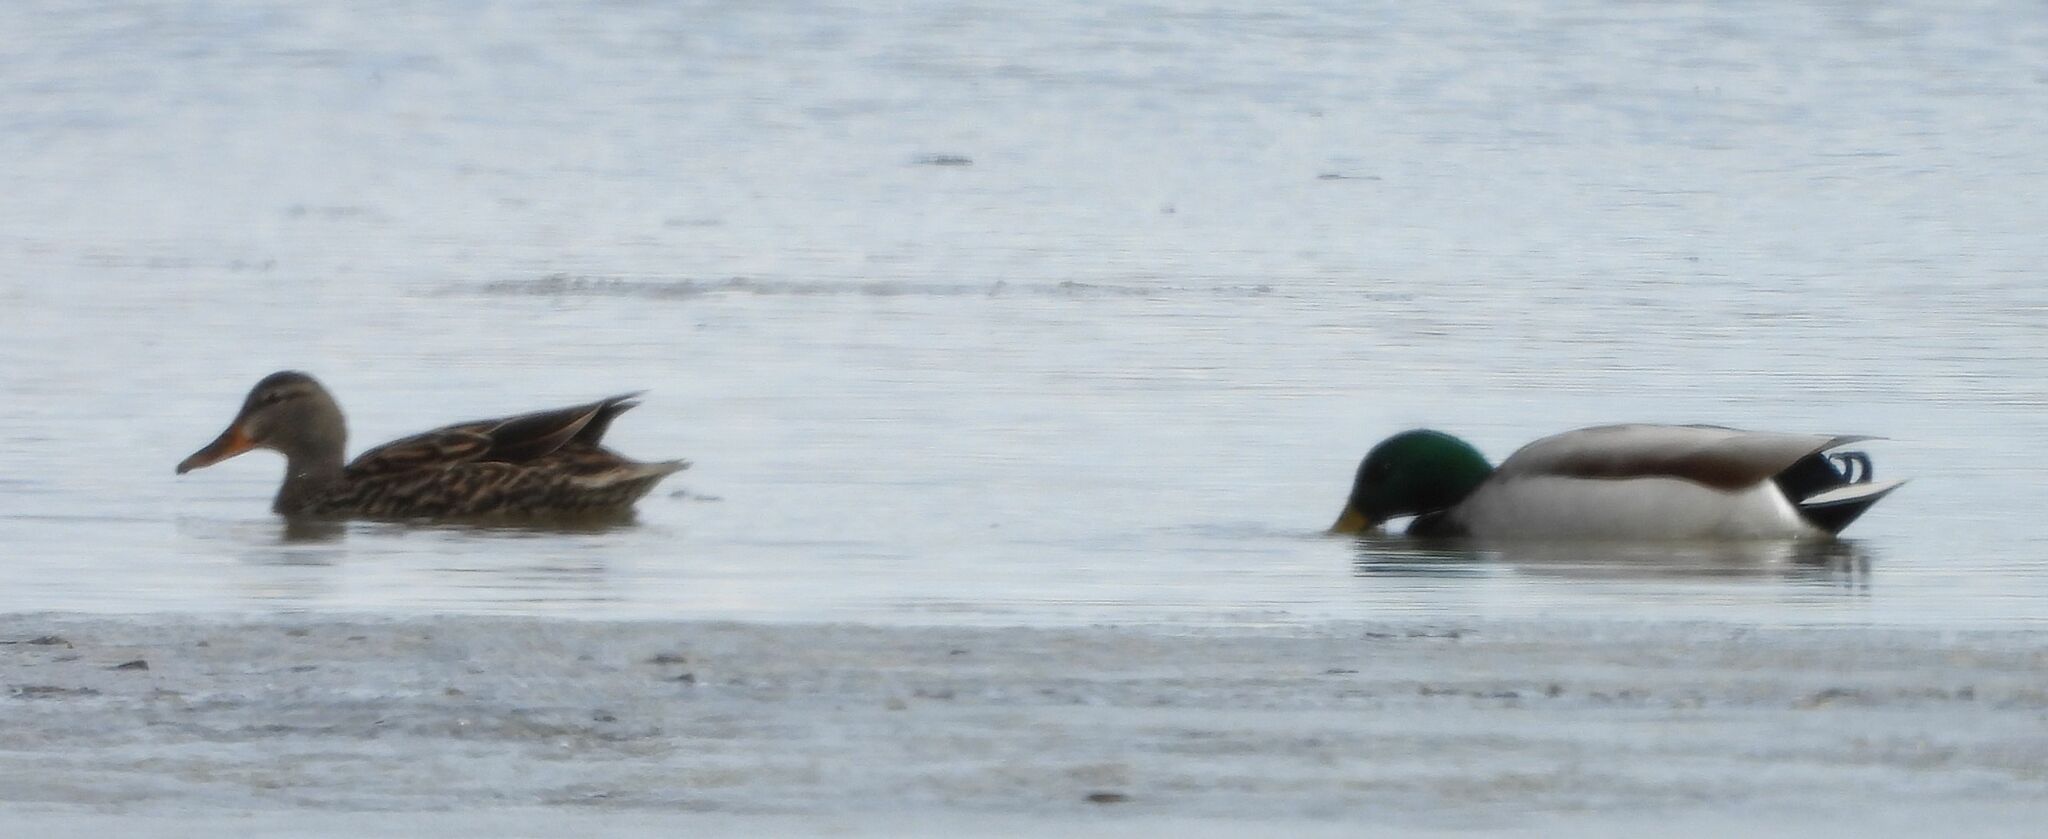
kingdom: Animalia
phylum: Chordata
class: Aves
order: Anseriformes
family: Anatidae
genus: Anas
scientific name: Anas platyrhynchos
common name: Mallard
